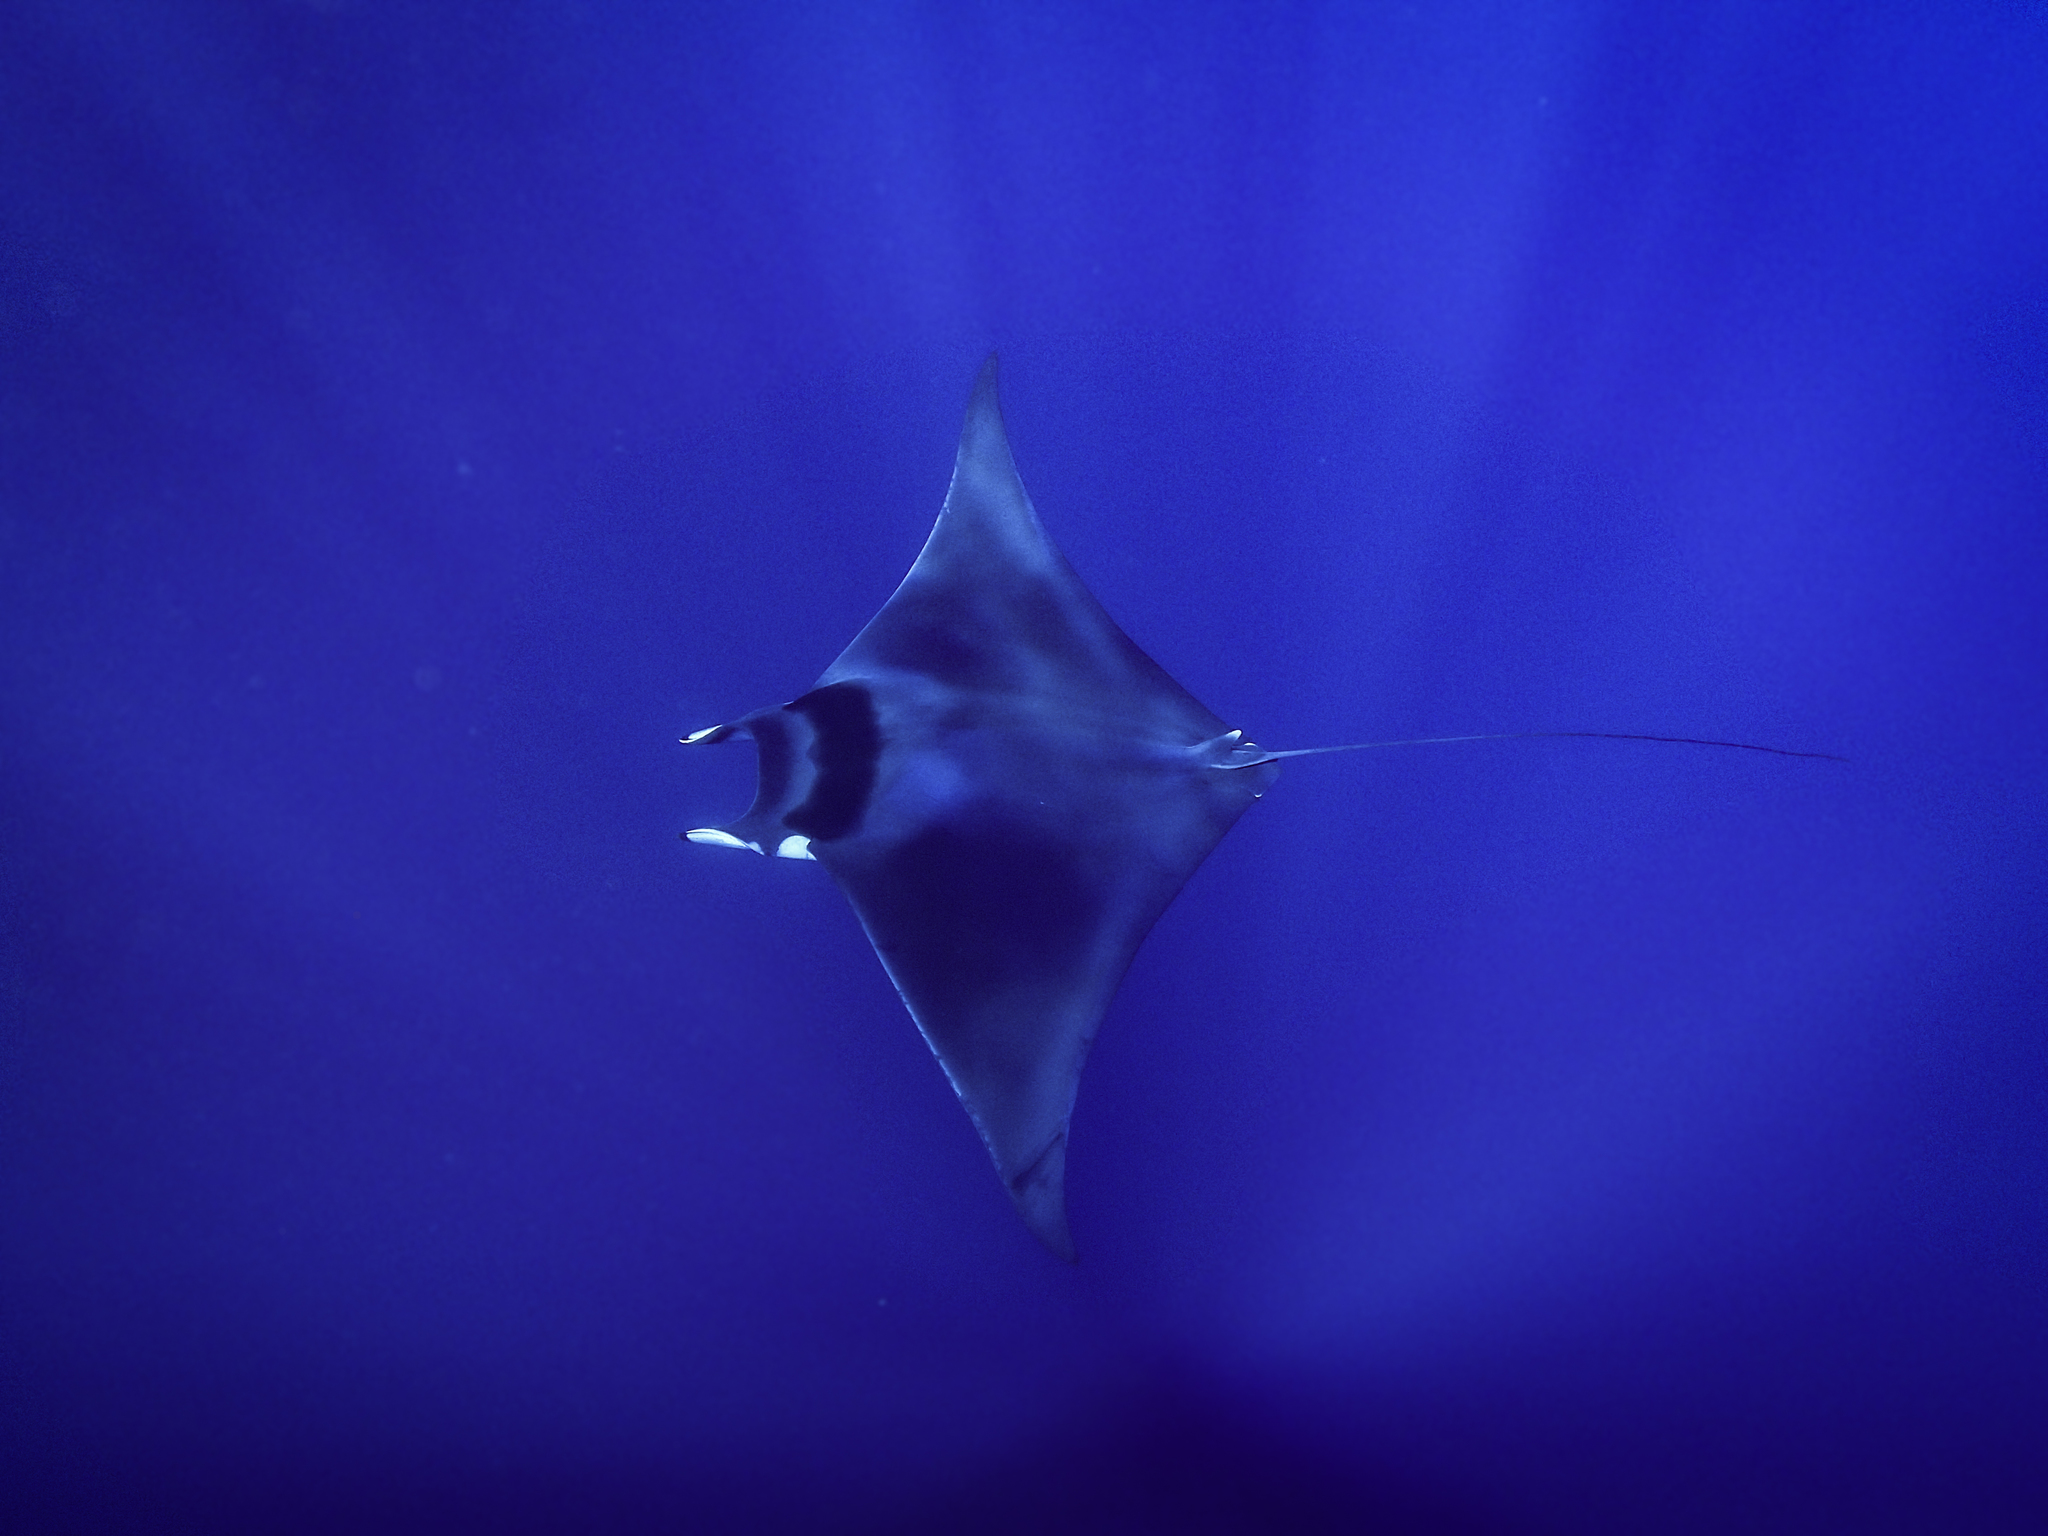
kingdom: Animalia
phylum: Chordata
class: Elasmobranchii
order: Myliobatiformes
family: Myliobatidae
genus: Mobula
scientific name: Mobula mobular
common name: Devil ray
